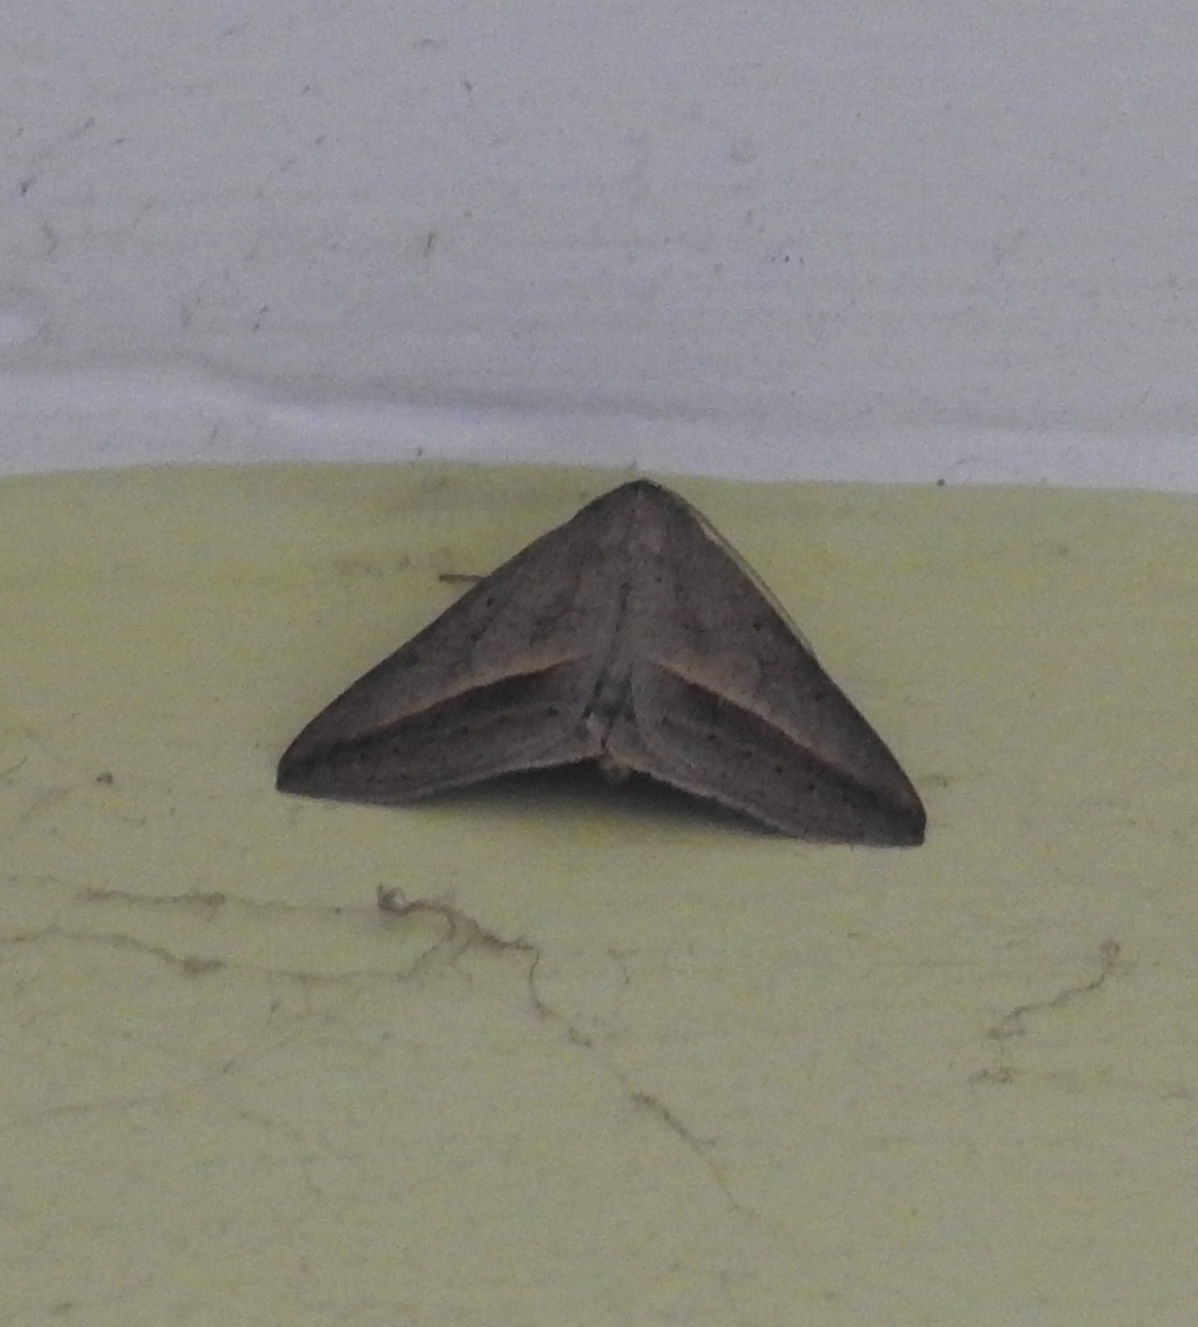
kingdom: Animalia
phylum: Arthropoda
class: Insecta
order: Lepidoptera
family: Erebidae
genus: Mocis
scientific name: Mocis frugalis
